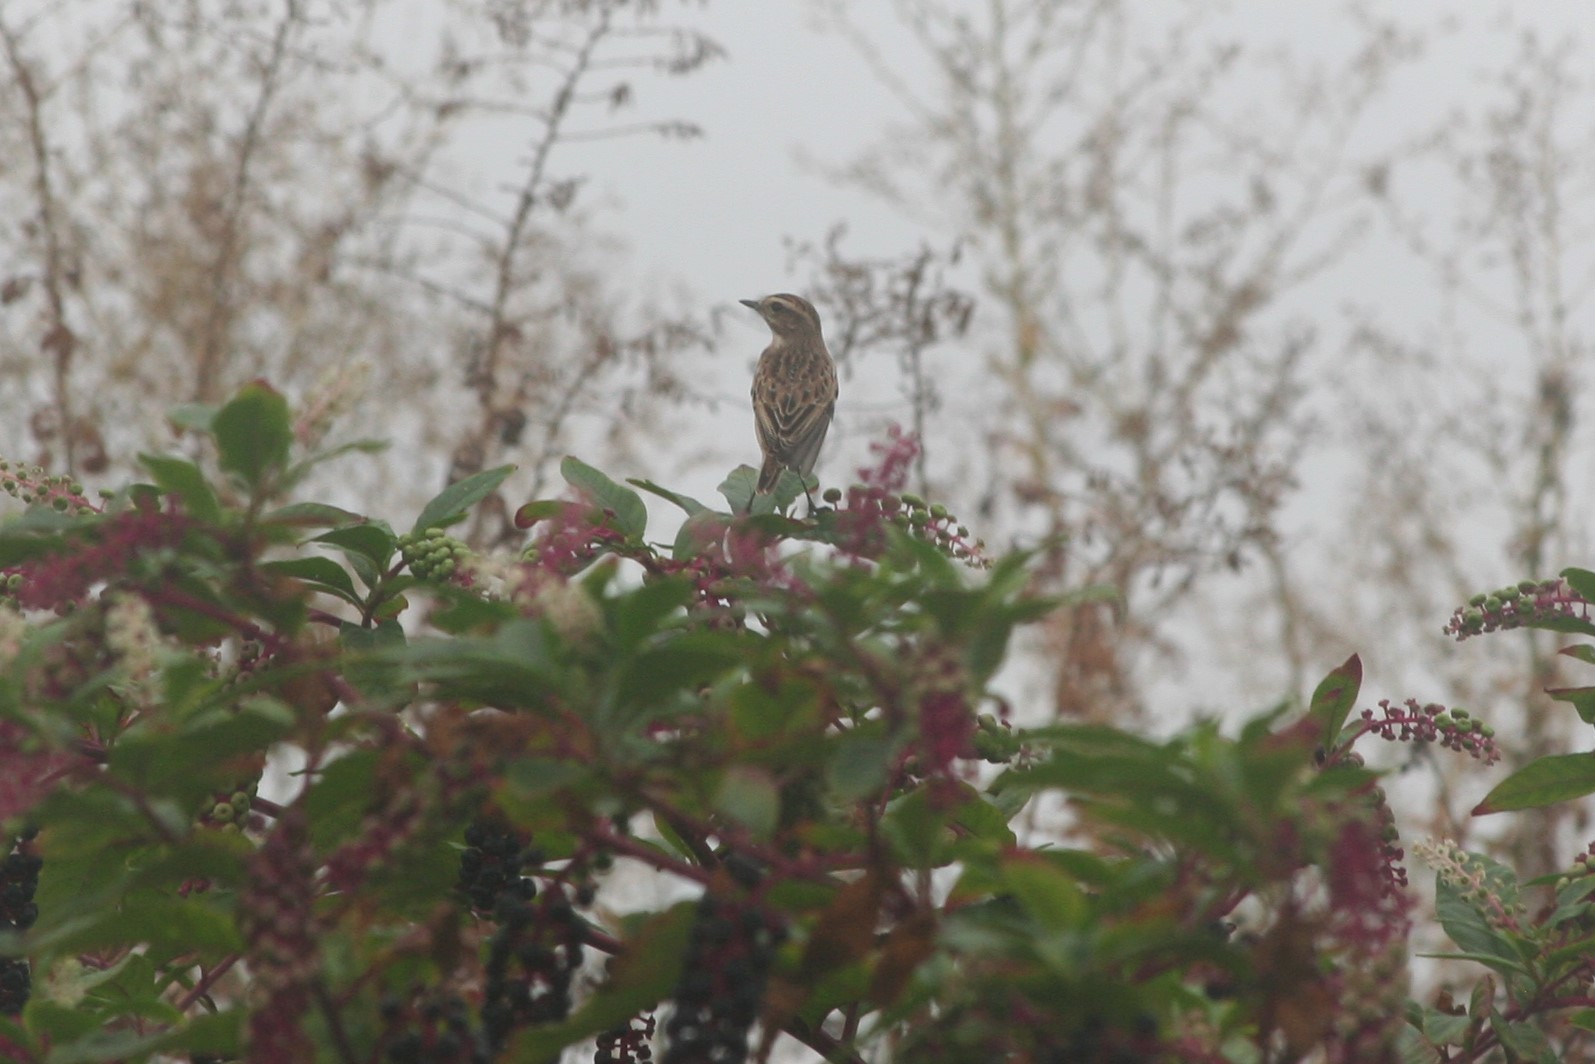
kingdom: Animalia
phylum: Chordata
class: Aves
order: Passeriformes
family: Muscicapidae
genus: Saxicola
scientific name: Saxicola rubetra
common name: Whinchat
